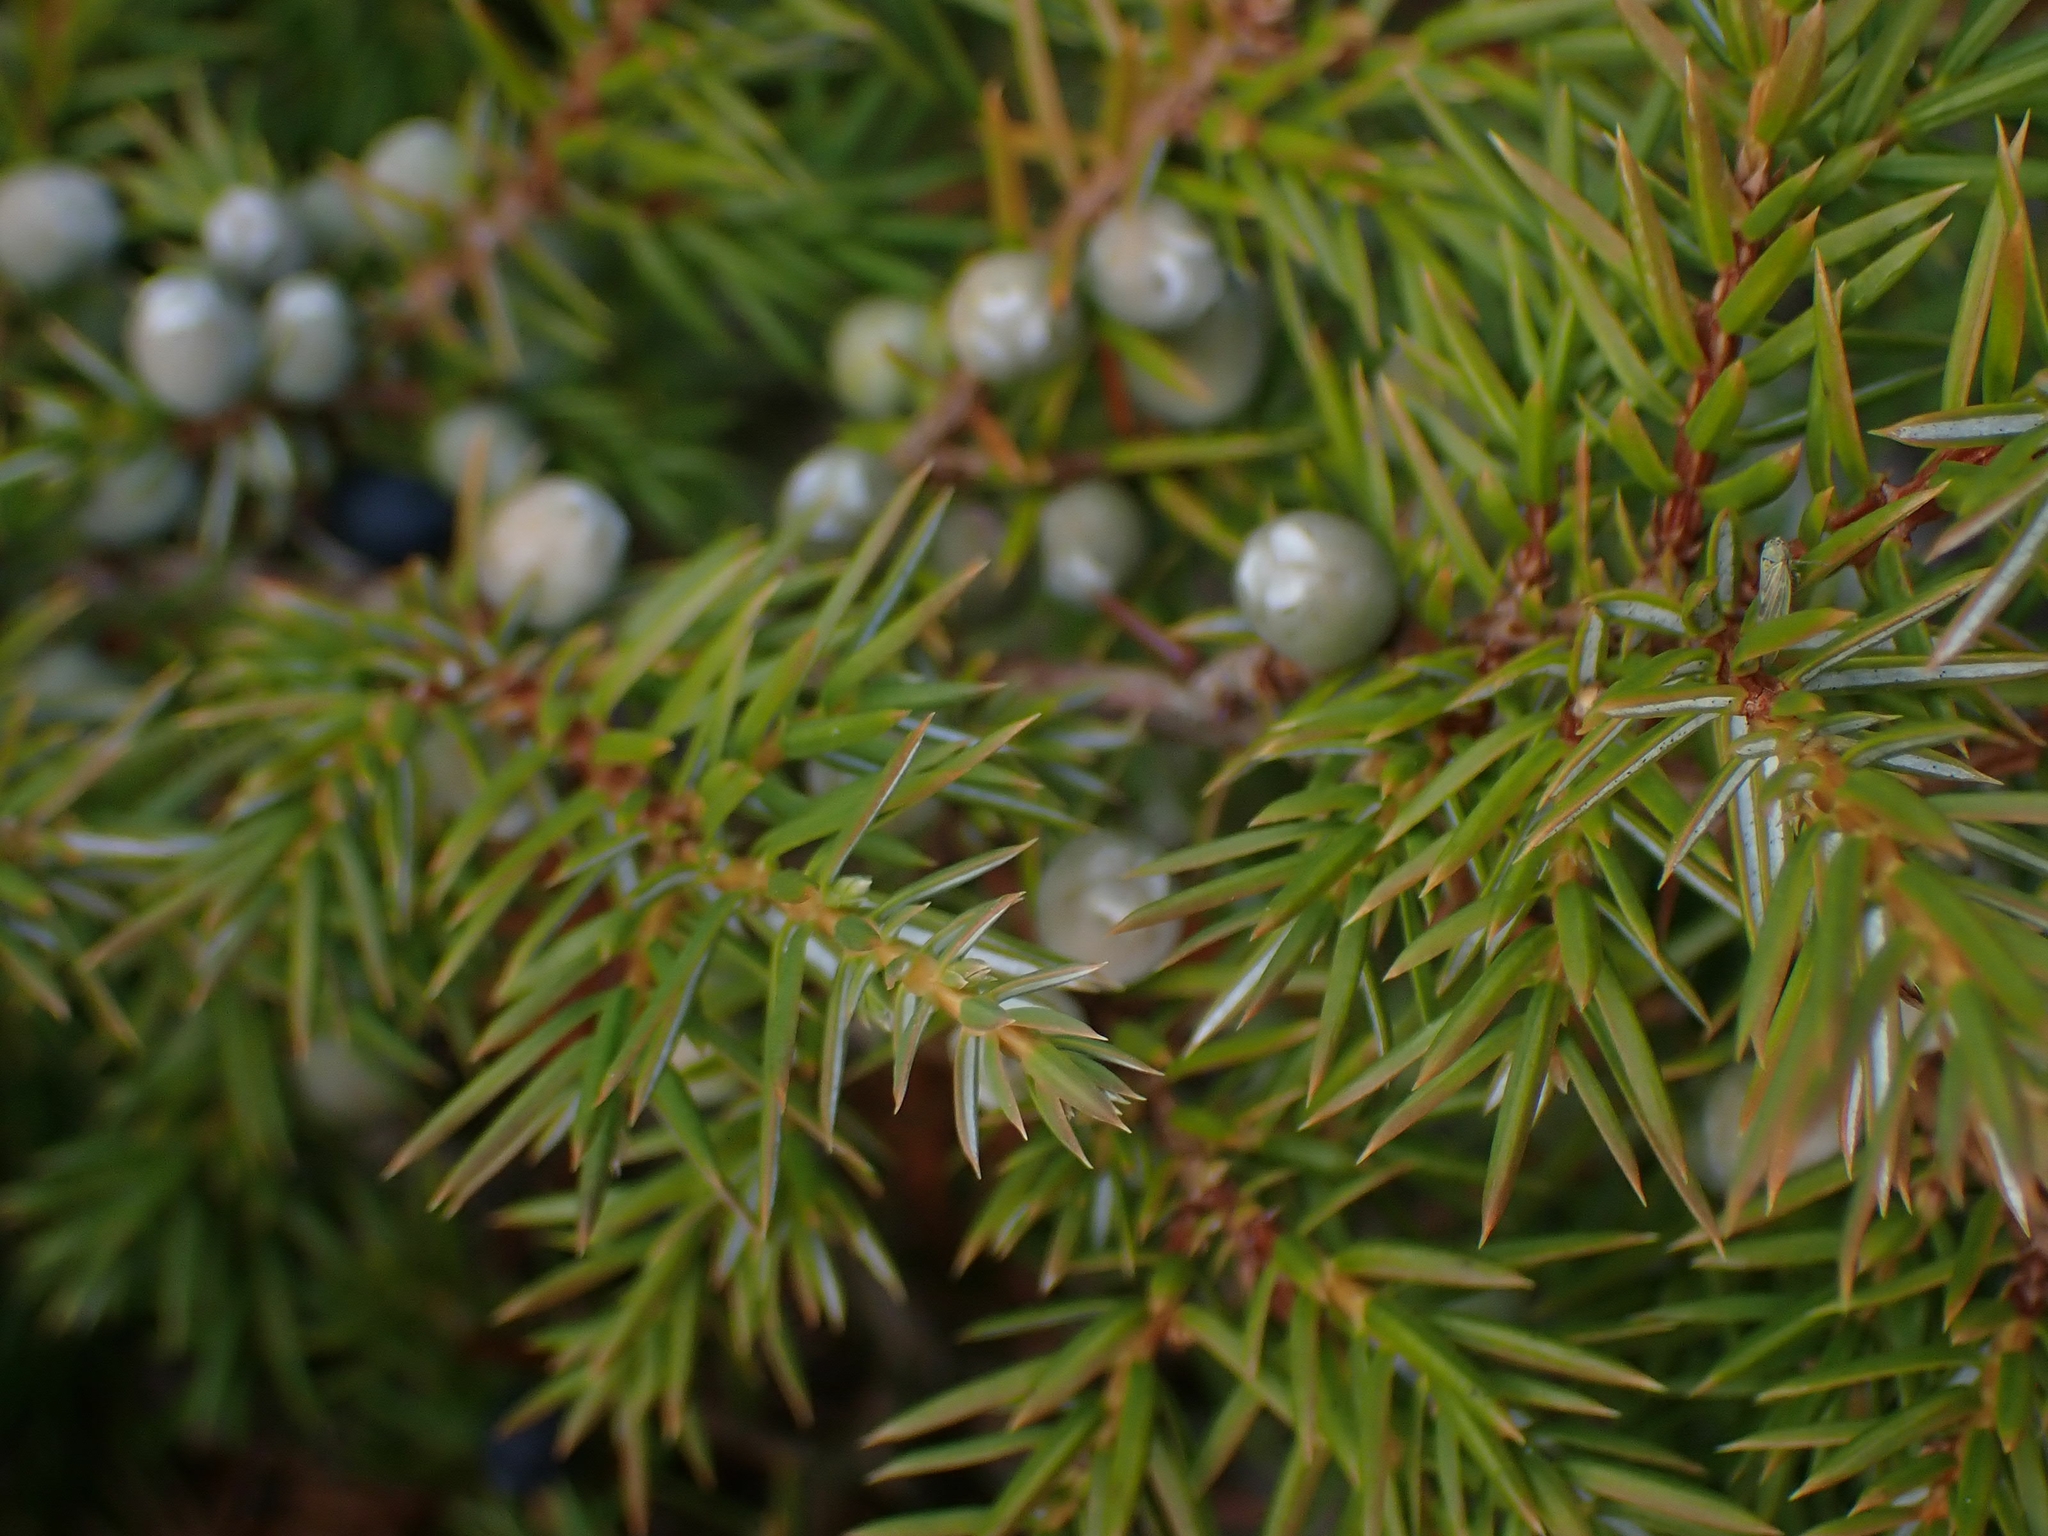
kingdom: Plantae
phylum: Tracheophyta
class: Pinopsida
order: Pinales
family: Cupressaceae
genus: Juniperus
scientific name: Juniperus communis
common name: Common juniper
